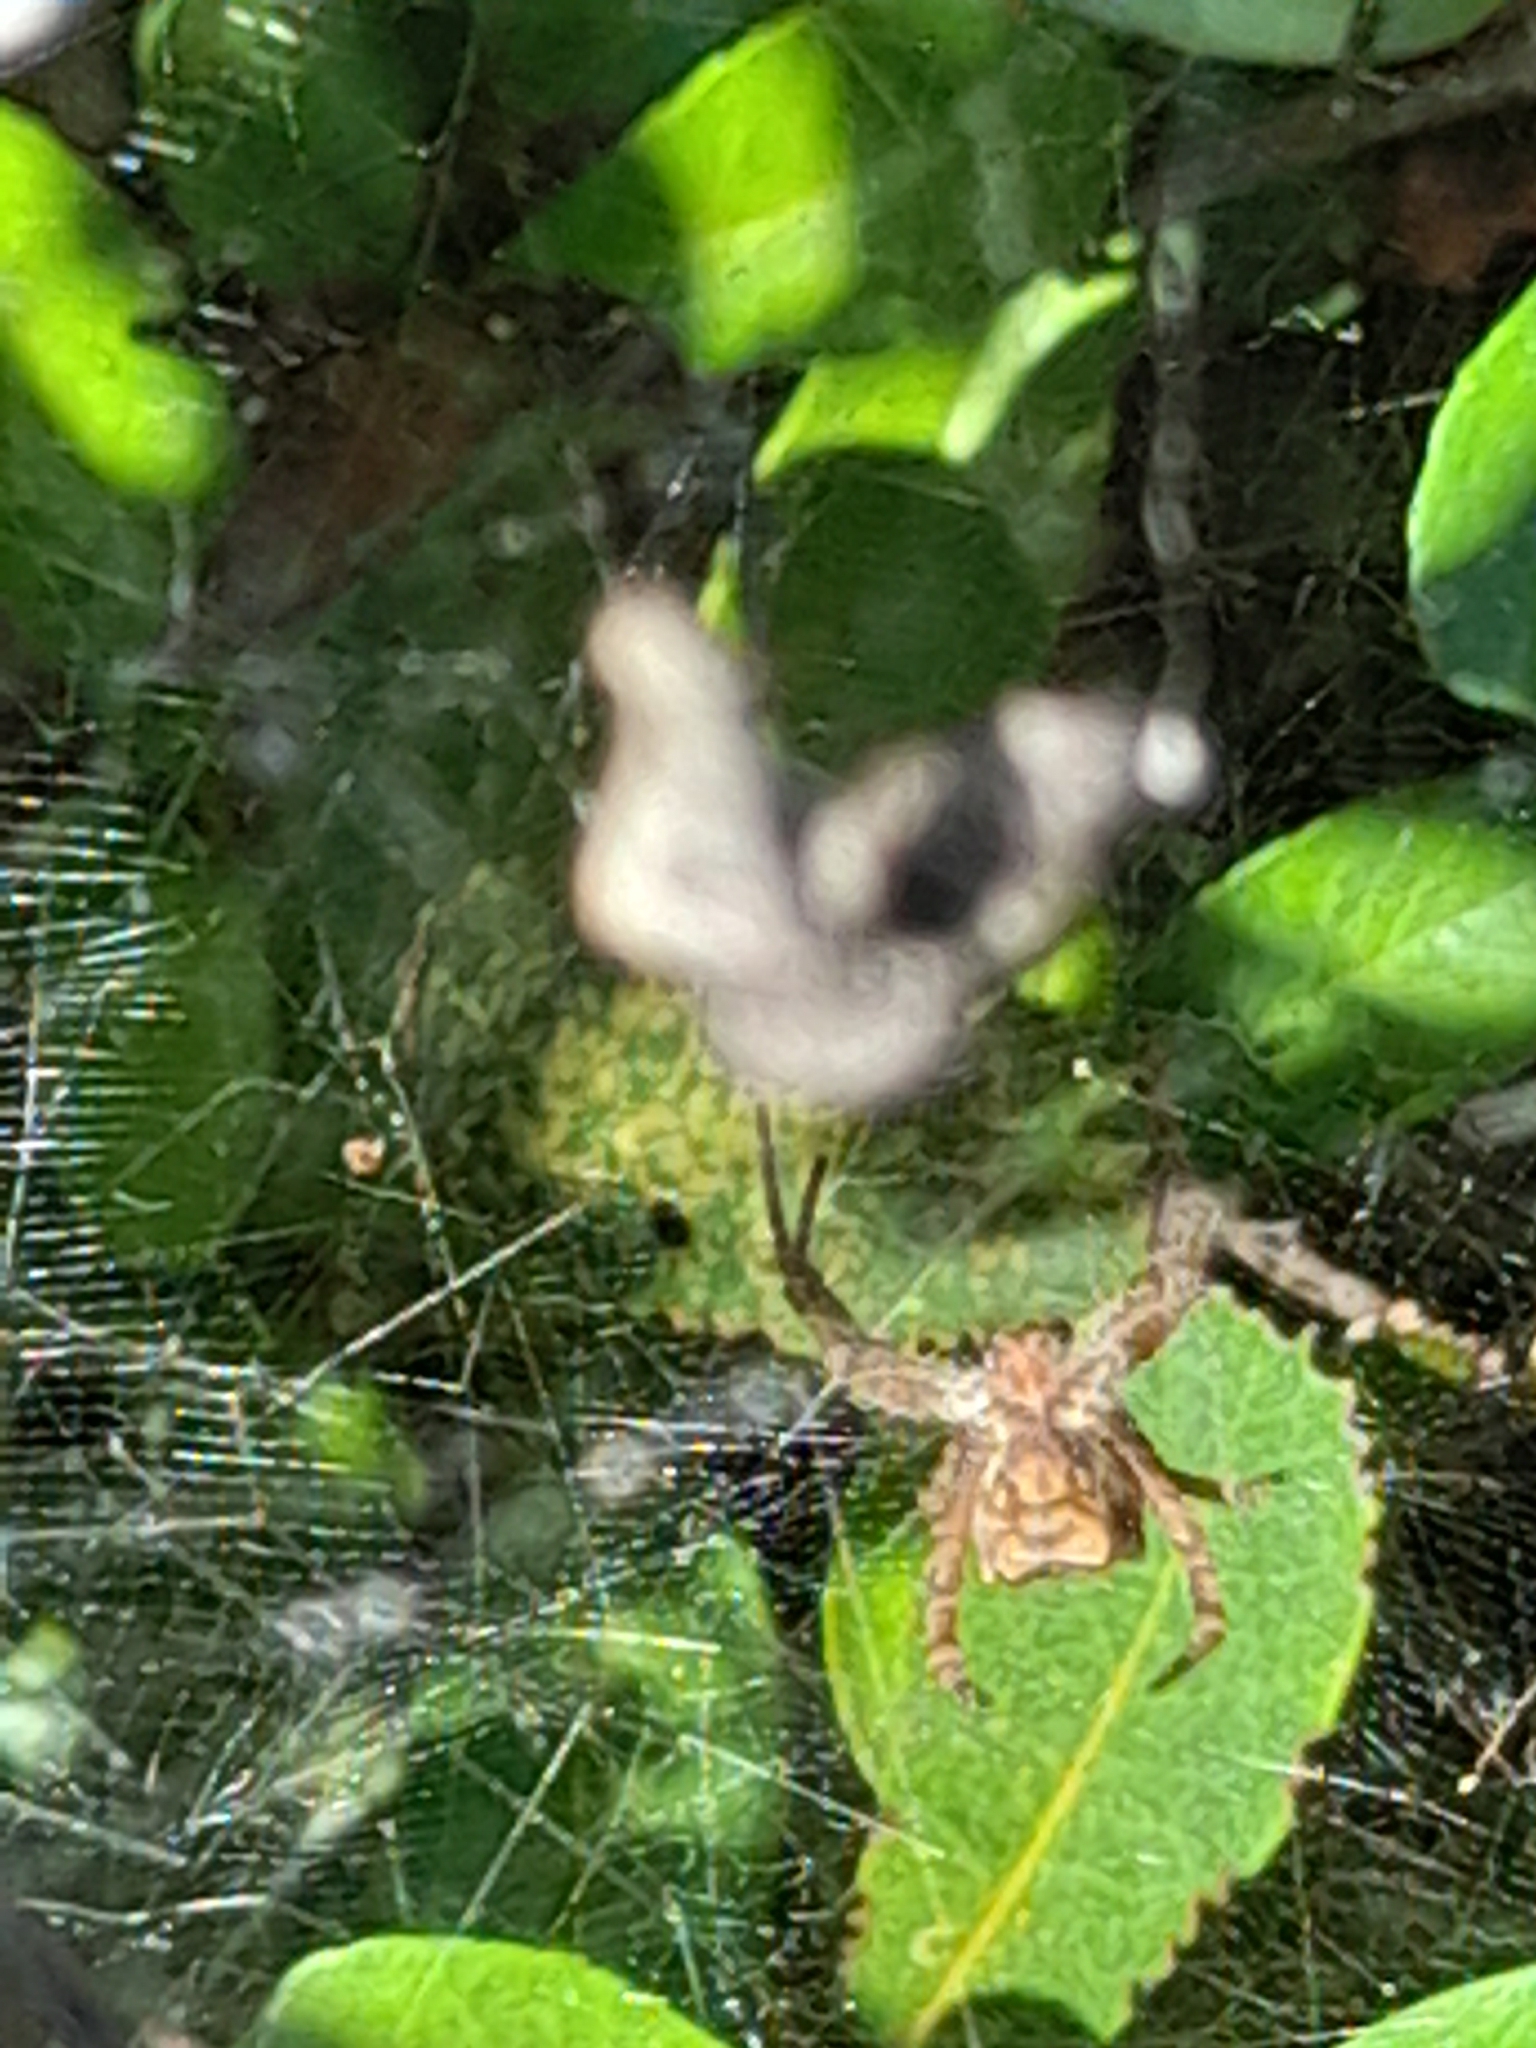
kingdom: Animalia
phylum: Arthropoda
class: Arachnida
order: Araneae
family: Araneidae
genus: Cyrtophora
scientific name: Cyrtophora citricola
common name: Orb weavers
